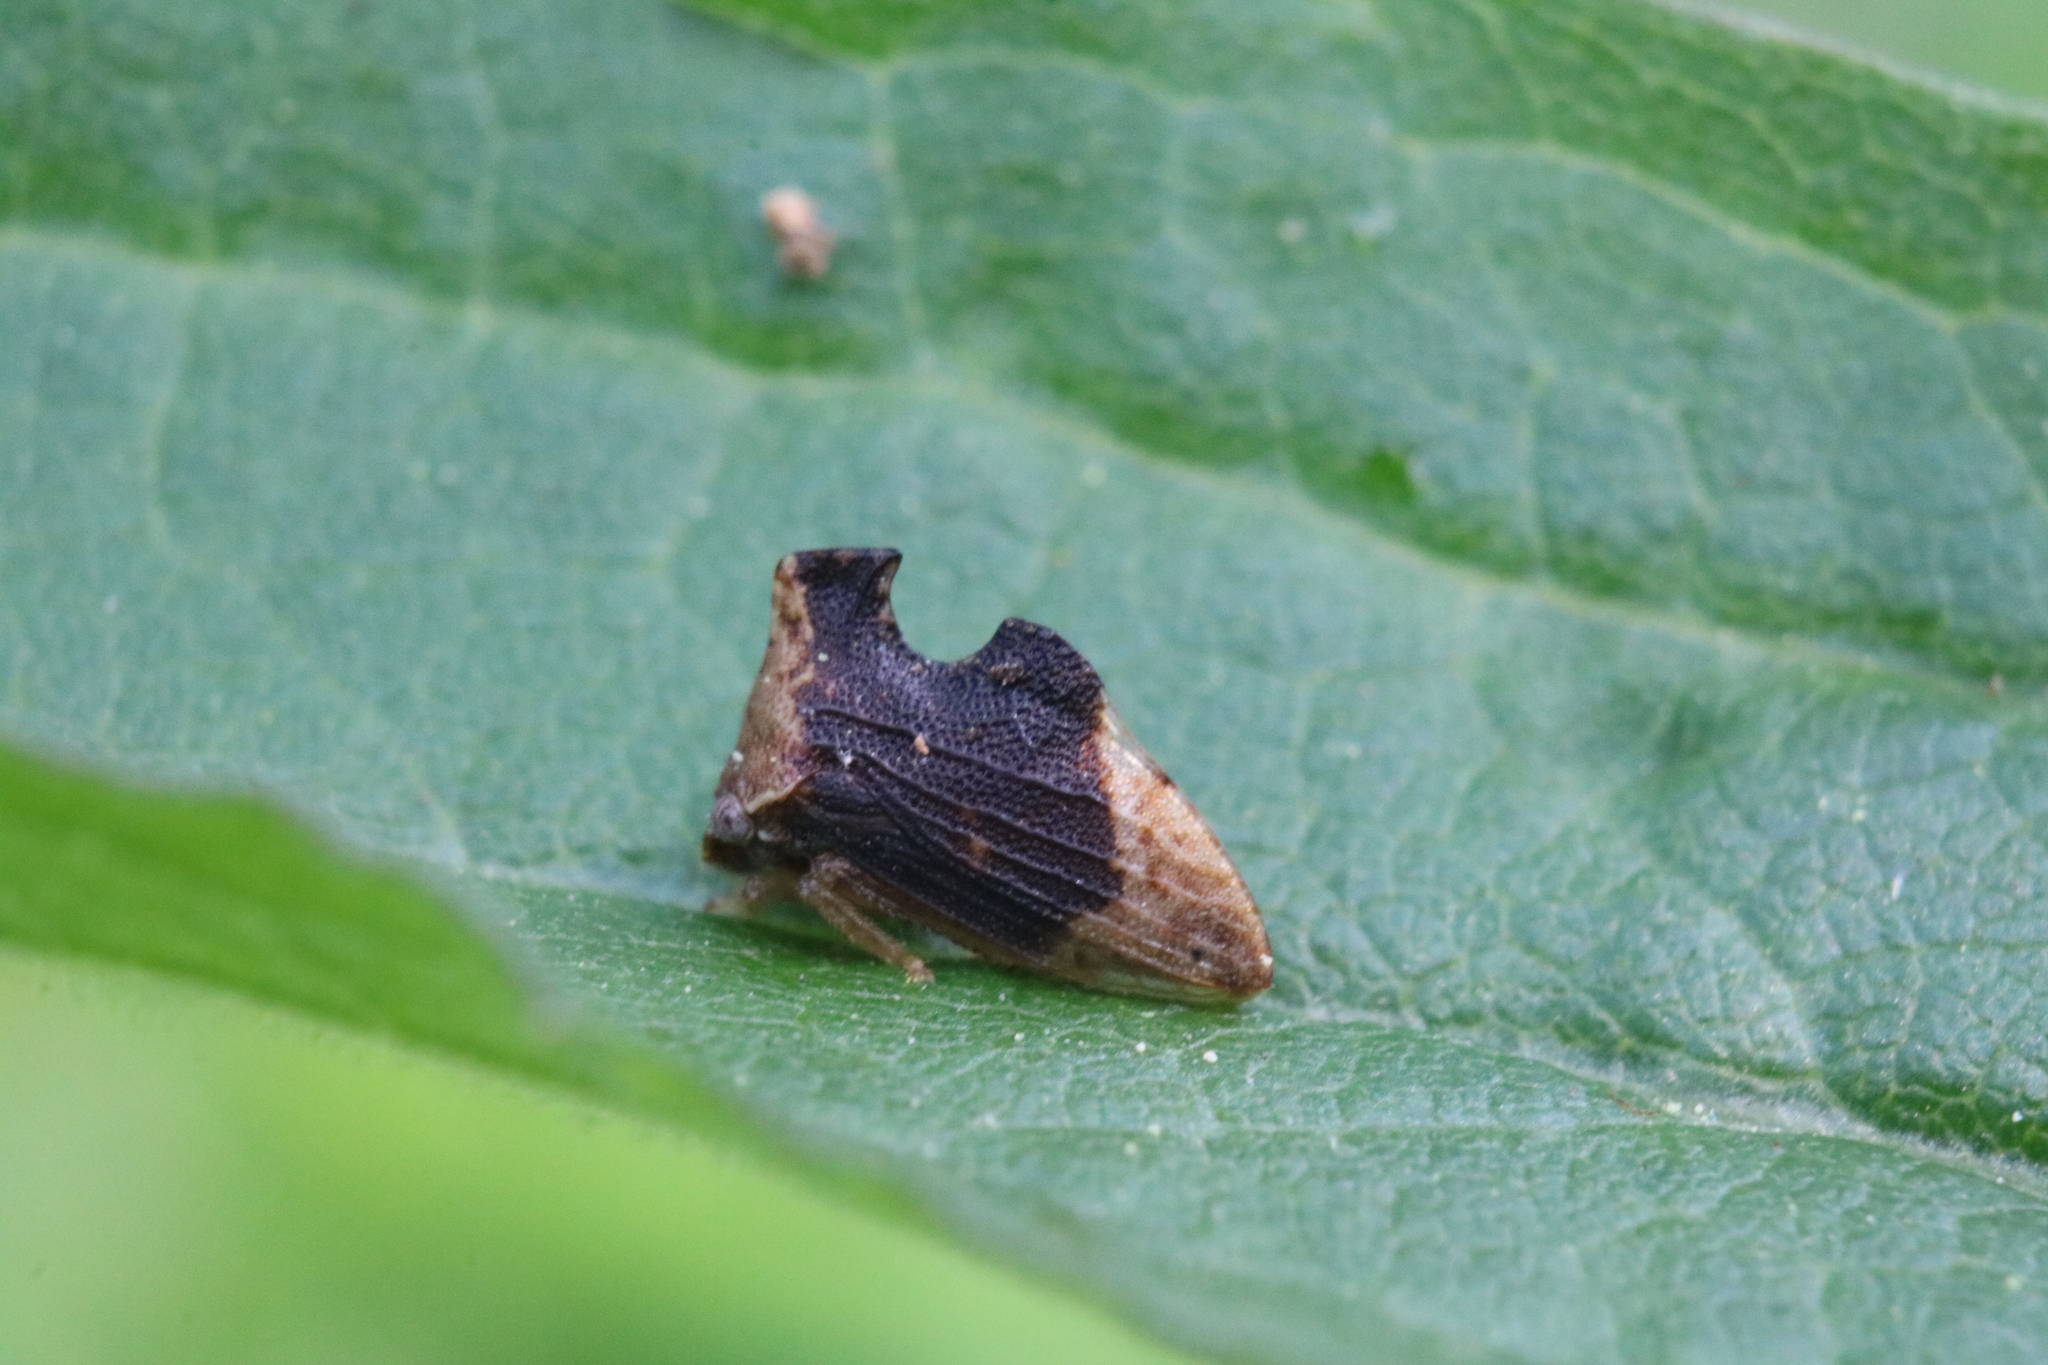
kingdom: Animalia
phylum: Arthropoda
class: Insecta
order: Hemiptera
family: Membracidae
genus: Entylia
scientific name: Entylia carinata
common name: Keeled treehopper
